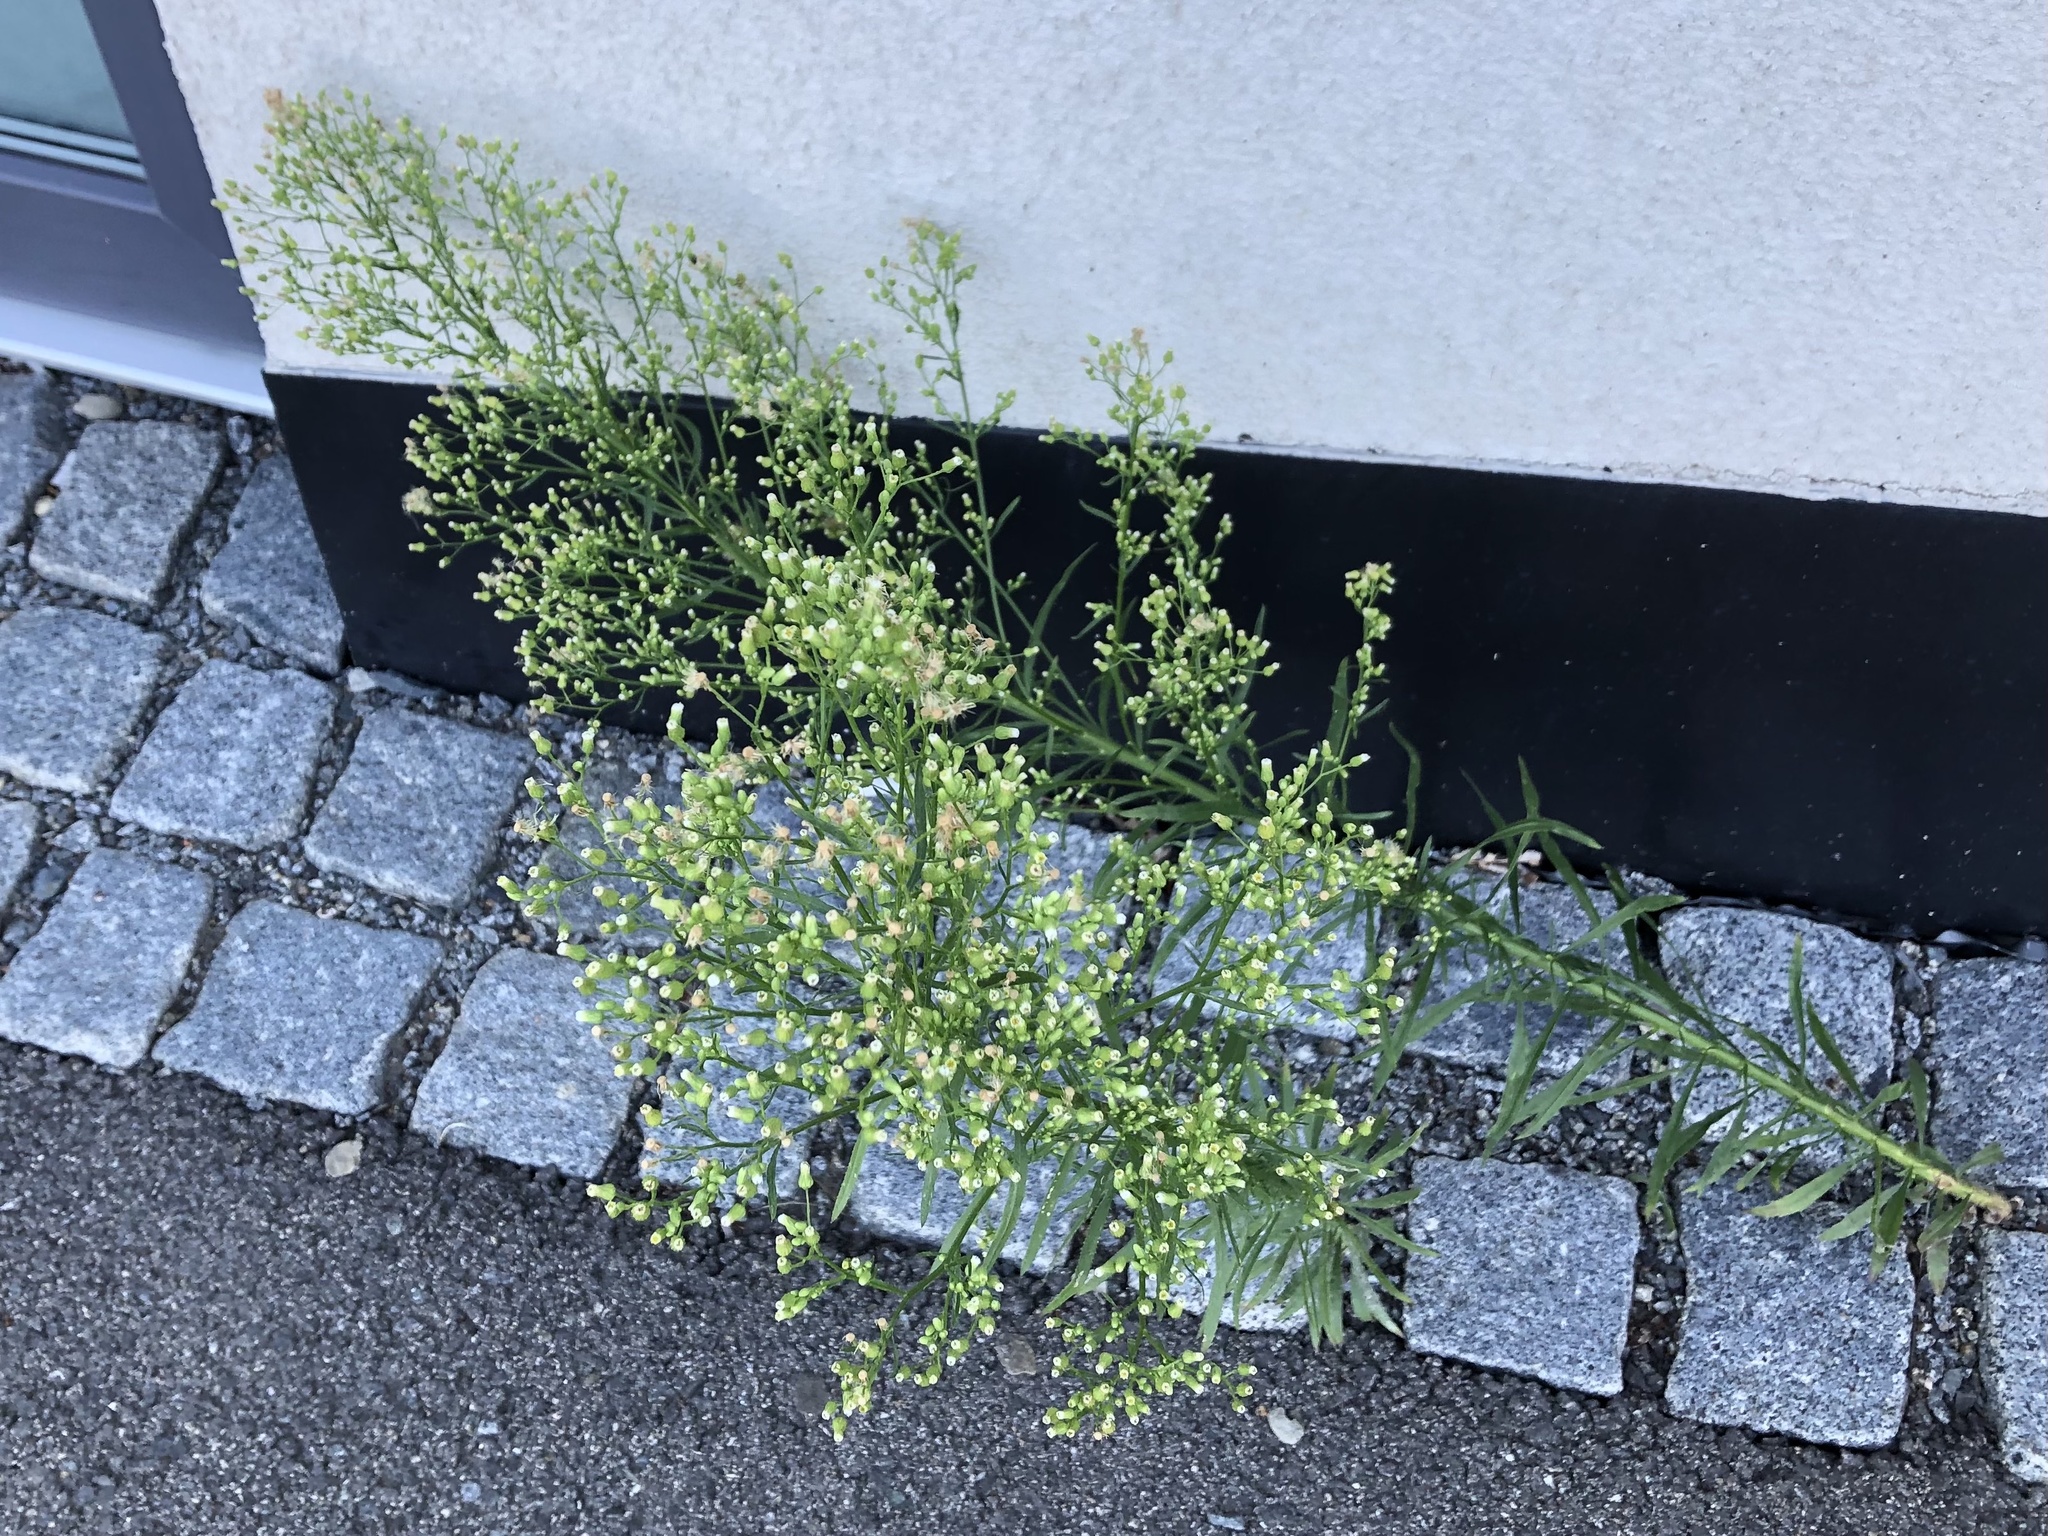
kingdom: Plantae
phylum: Tracheophyta
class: Magnoliopsida
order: Asterales
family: Asteraceae
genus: Erigeron
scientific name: Erigeron canadensis
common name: Canadian fleabane
